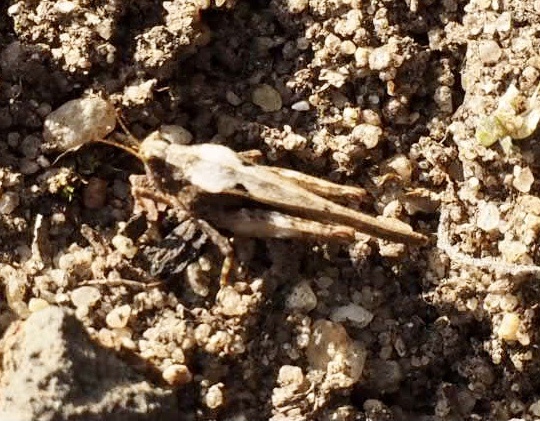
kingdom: Animalia
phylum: Arthropoda
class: Insecta
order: Orthoptera
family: Tetrigidae
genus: Tetrix
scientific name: Tetrix subulata
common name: Slender ground-hopper
